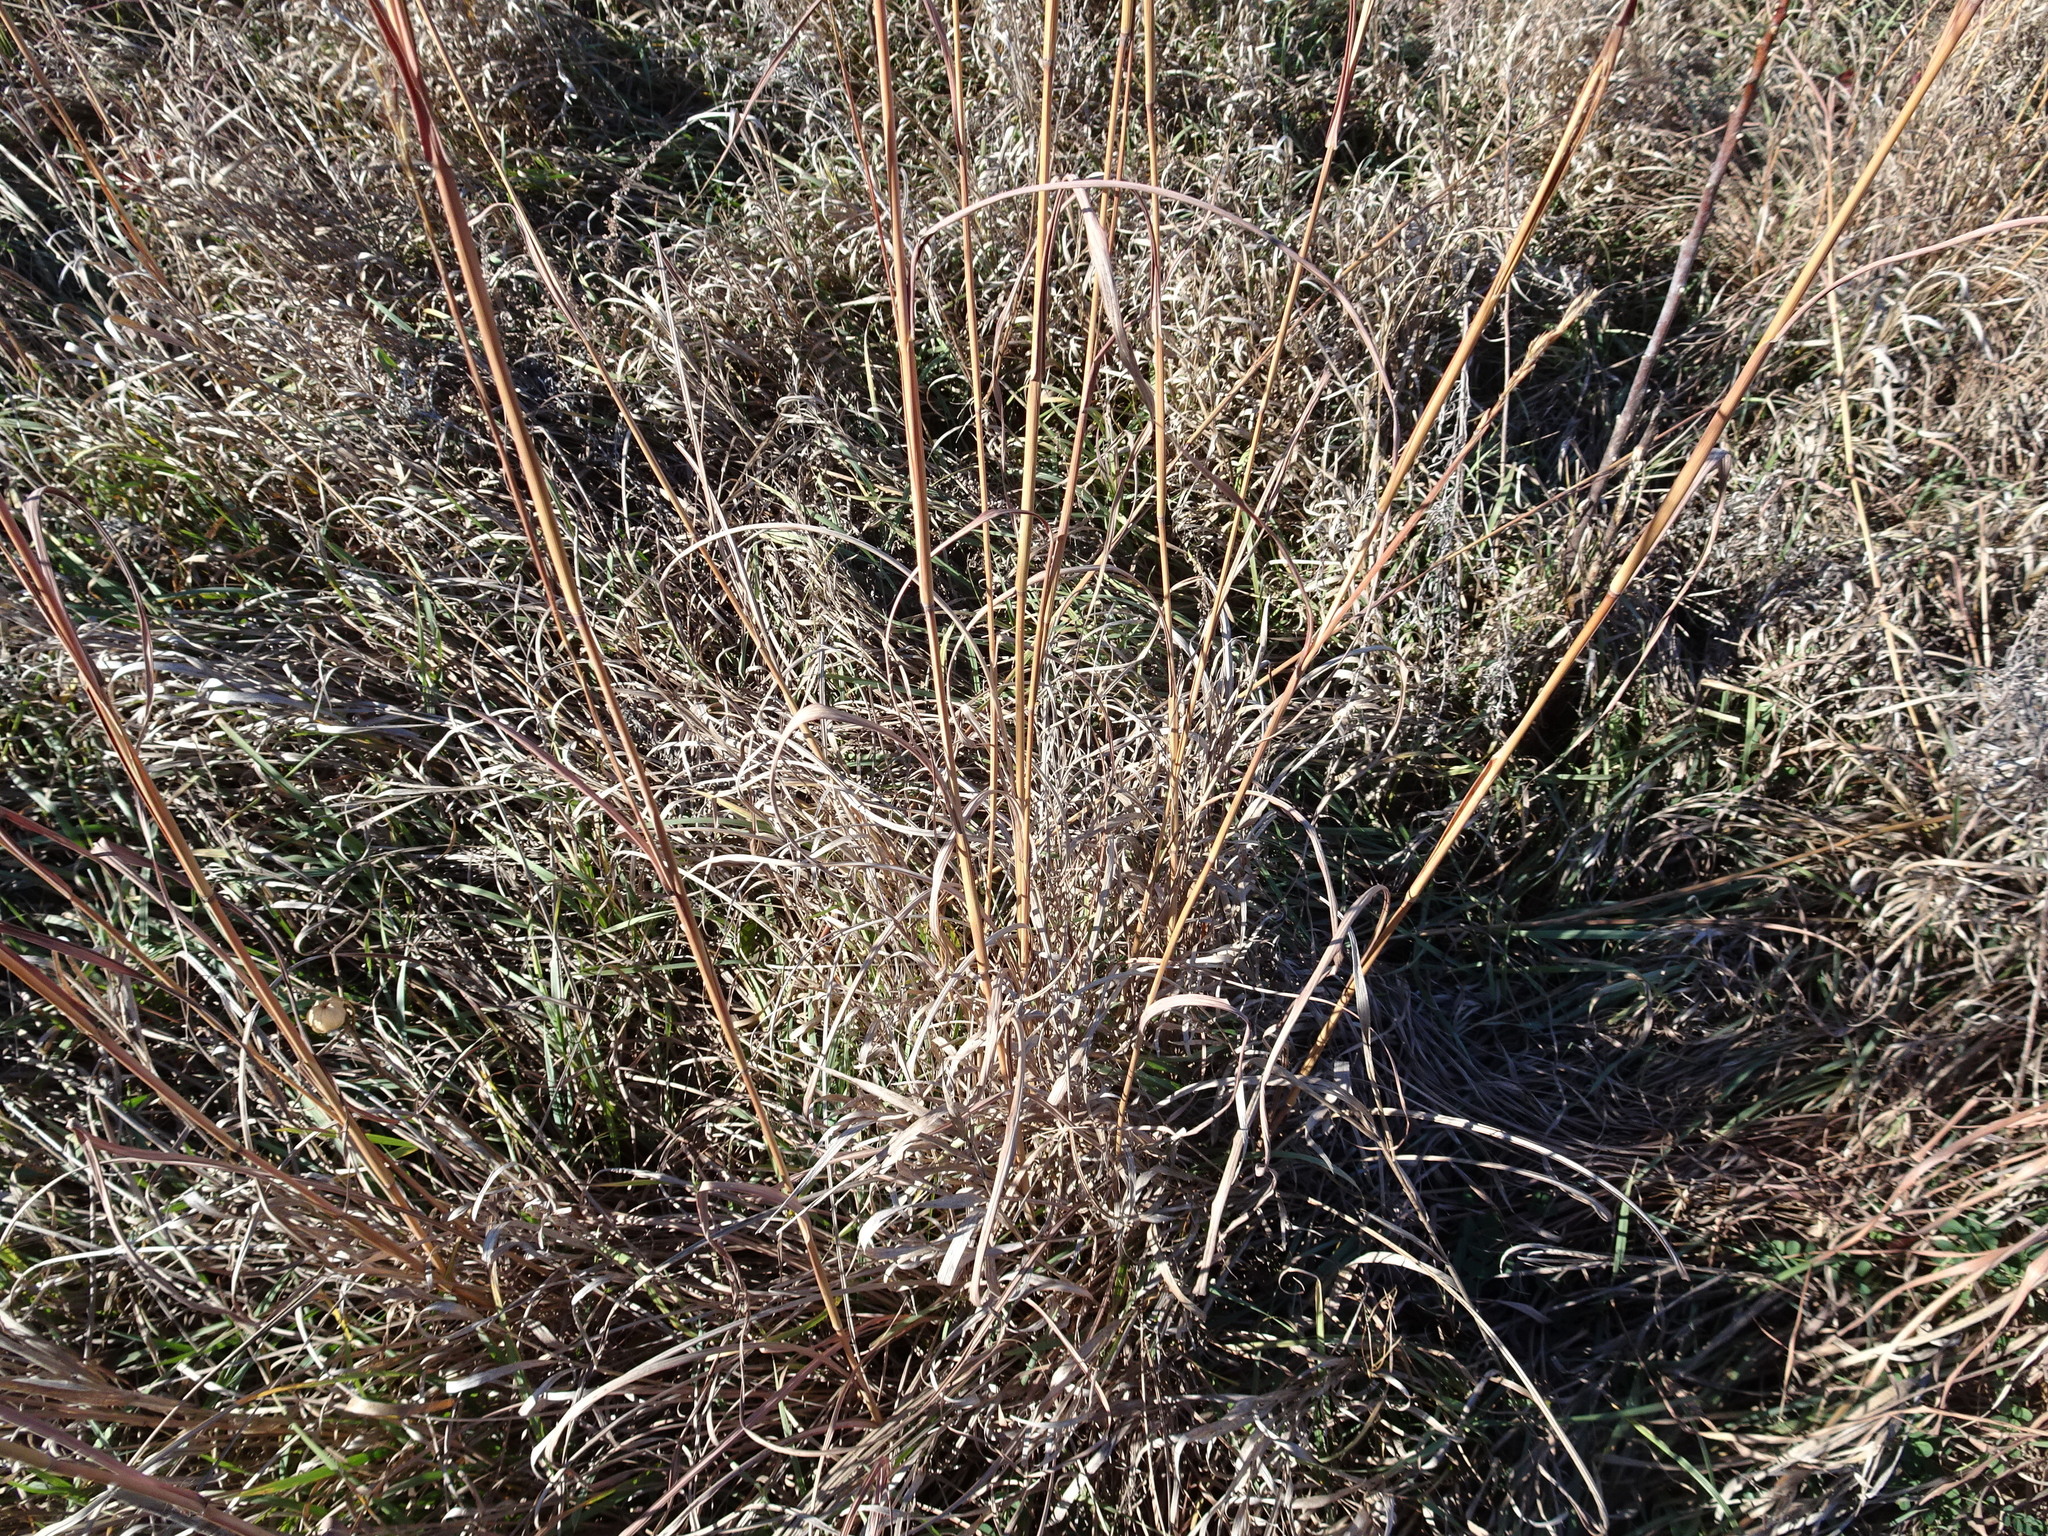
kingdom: Plantae
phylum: Tracheophyta
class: Liliopsida
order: Poales
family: Poaceae
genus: Andropogon
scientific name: Andropogon gerardi
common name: Big bluestem
